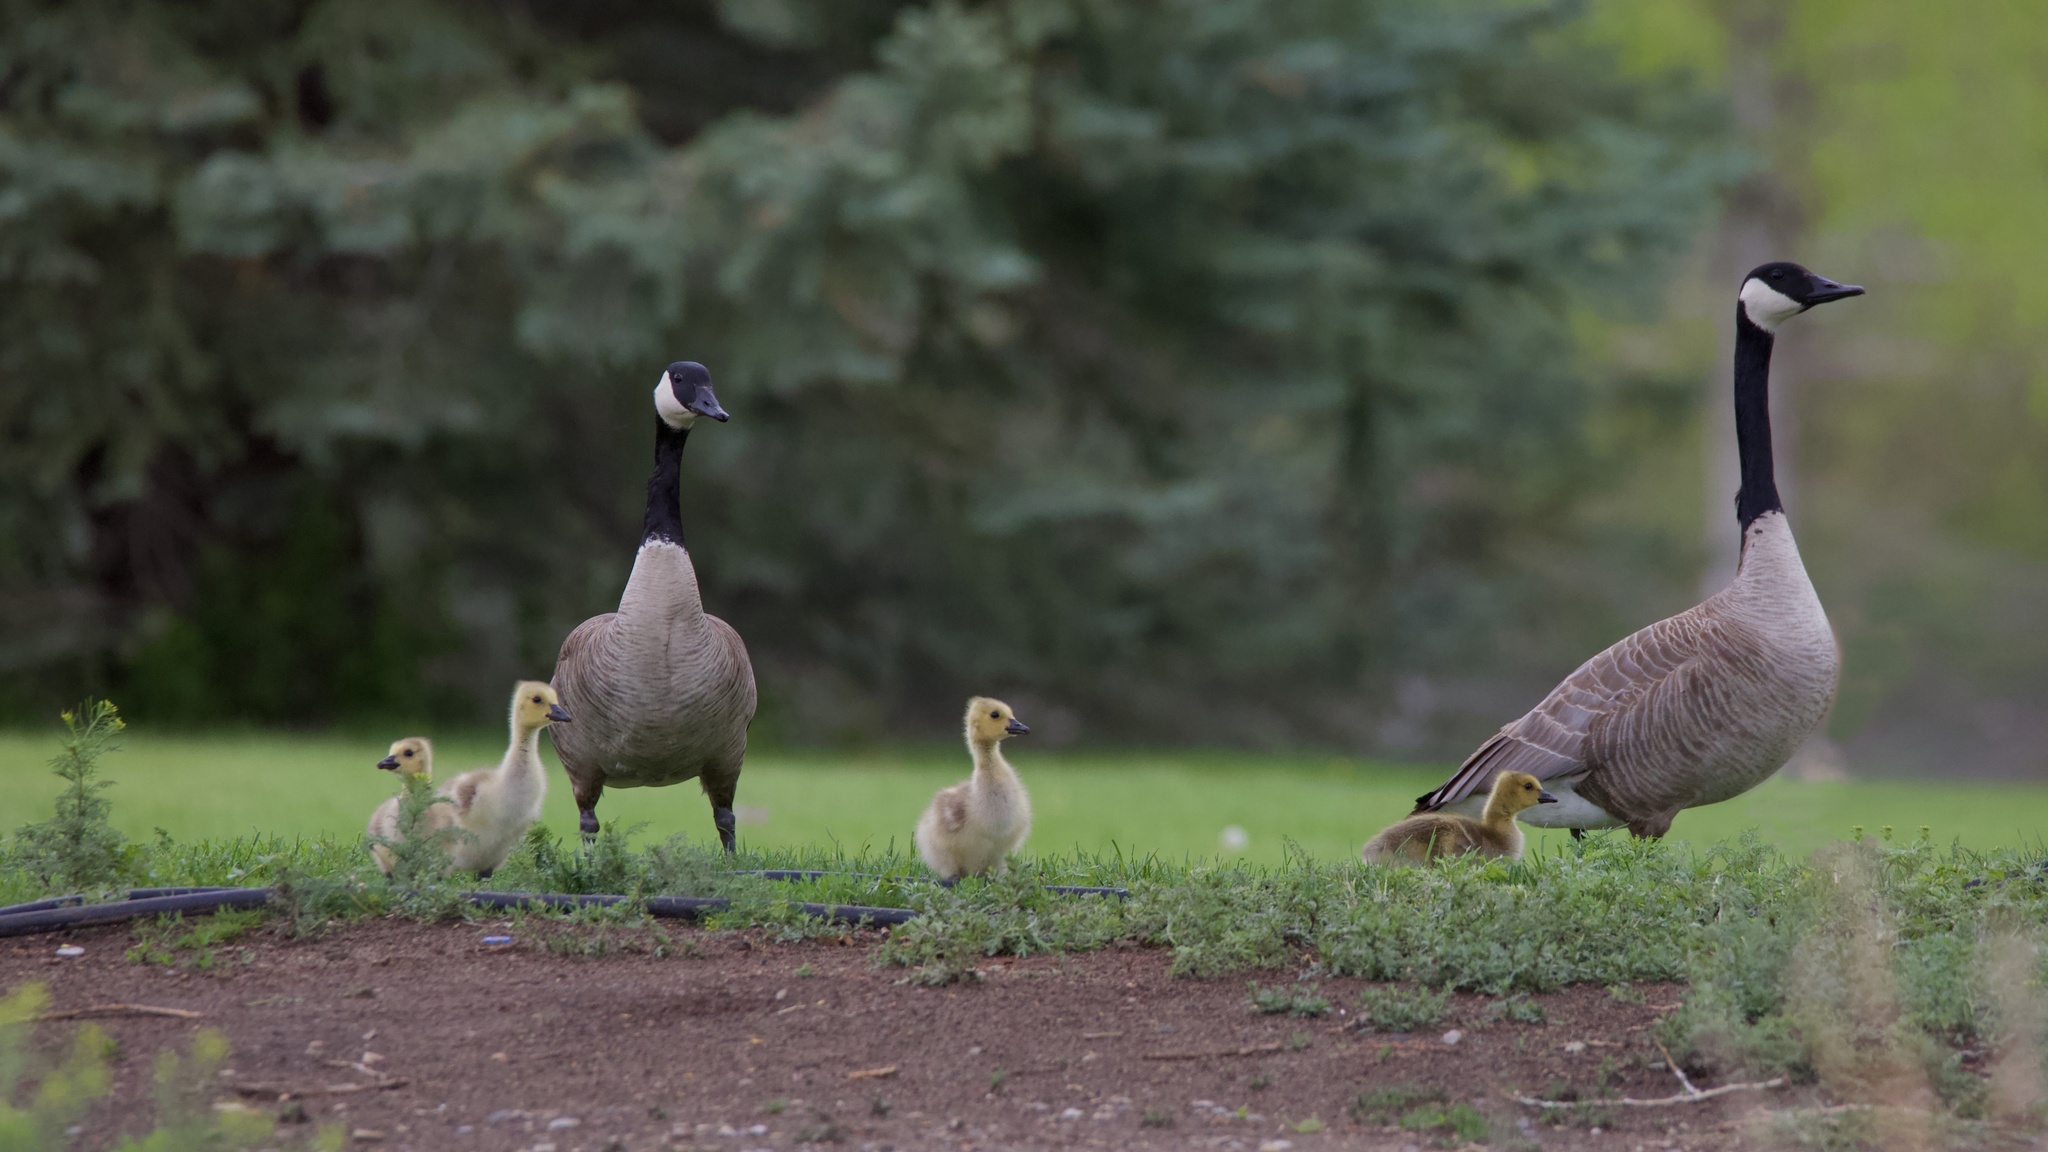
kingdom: Animalia
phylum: Chordata
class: Aves
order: Anseriformes
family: Anatidae
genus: Branta
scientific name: Branta canadensis
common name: Canada goose
